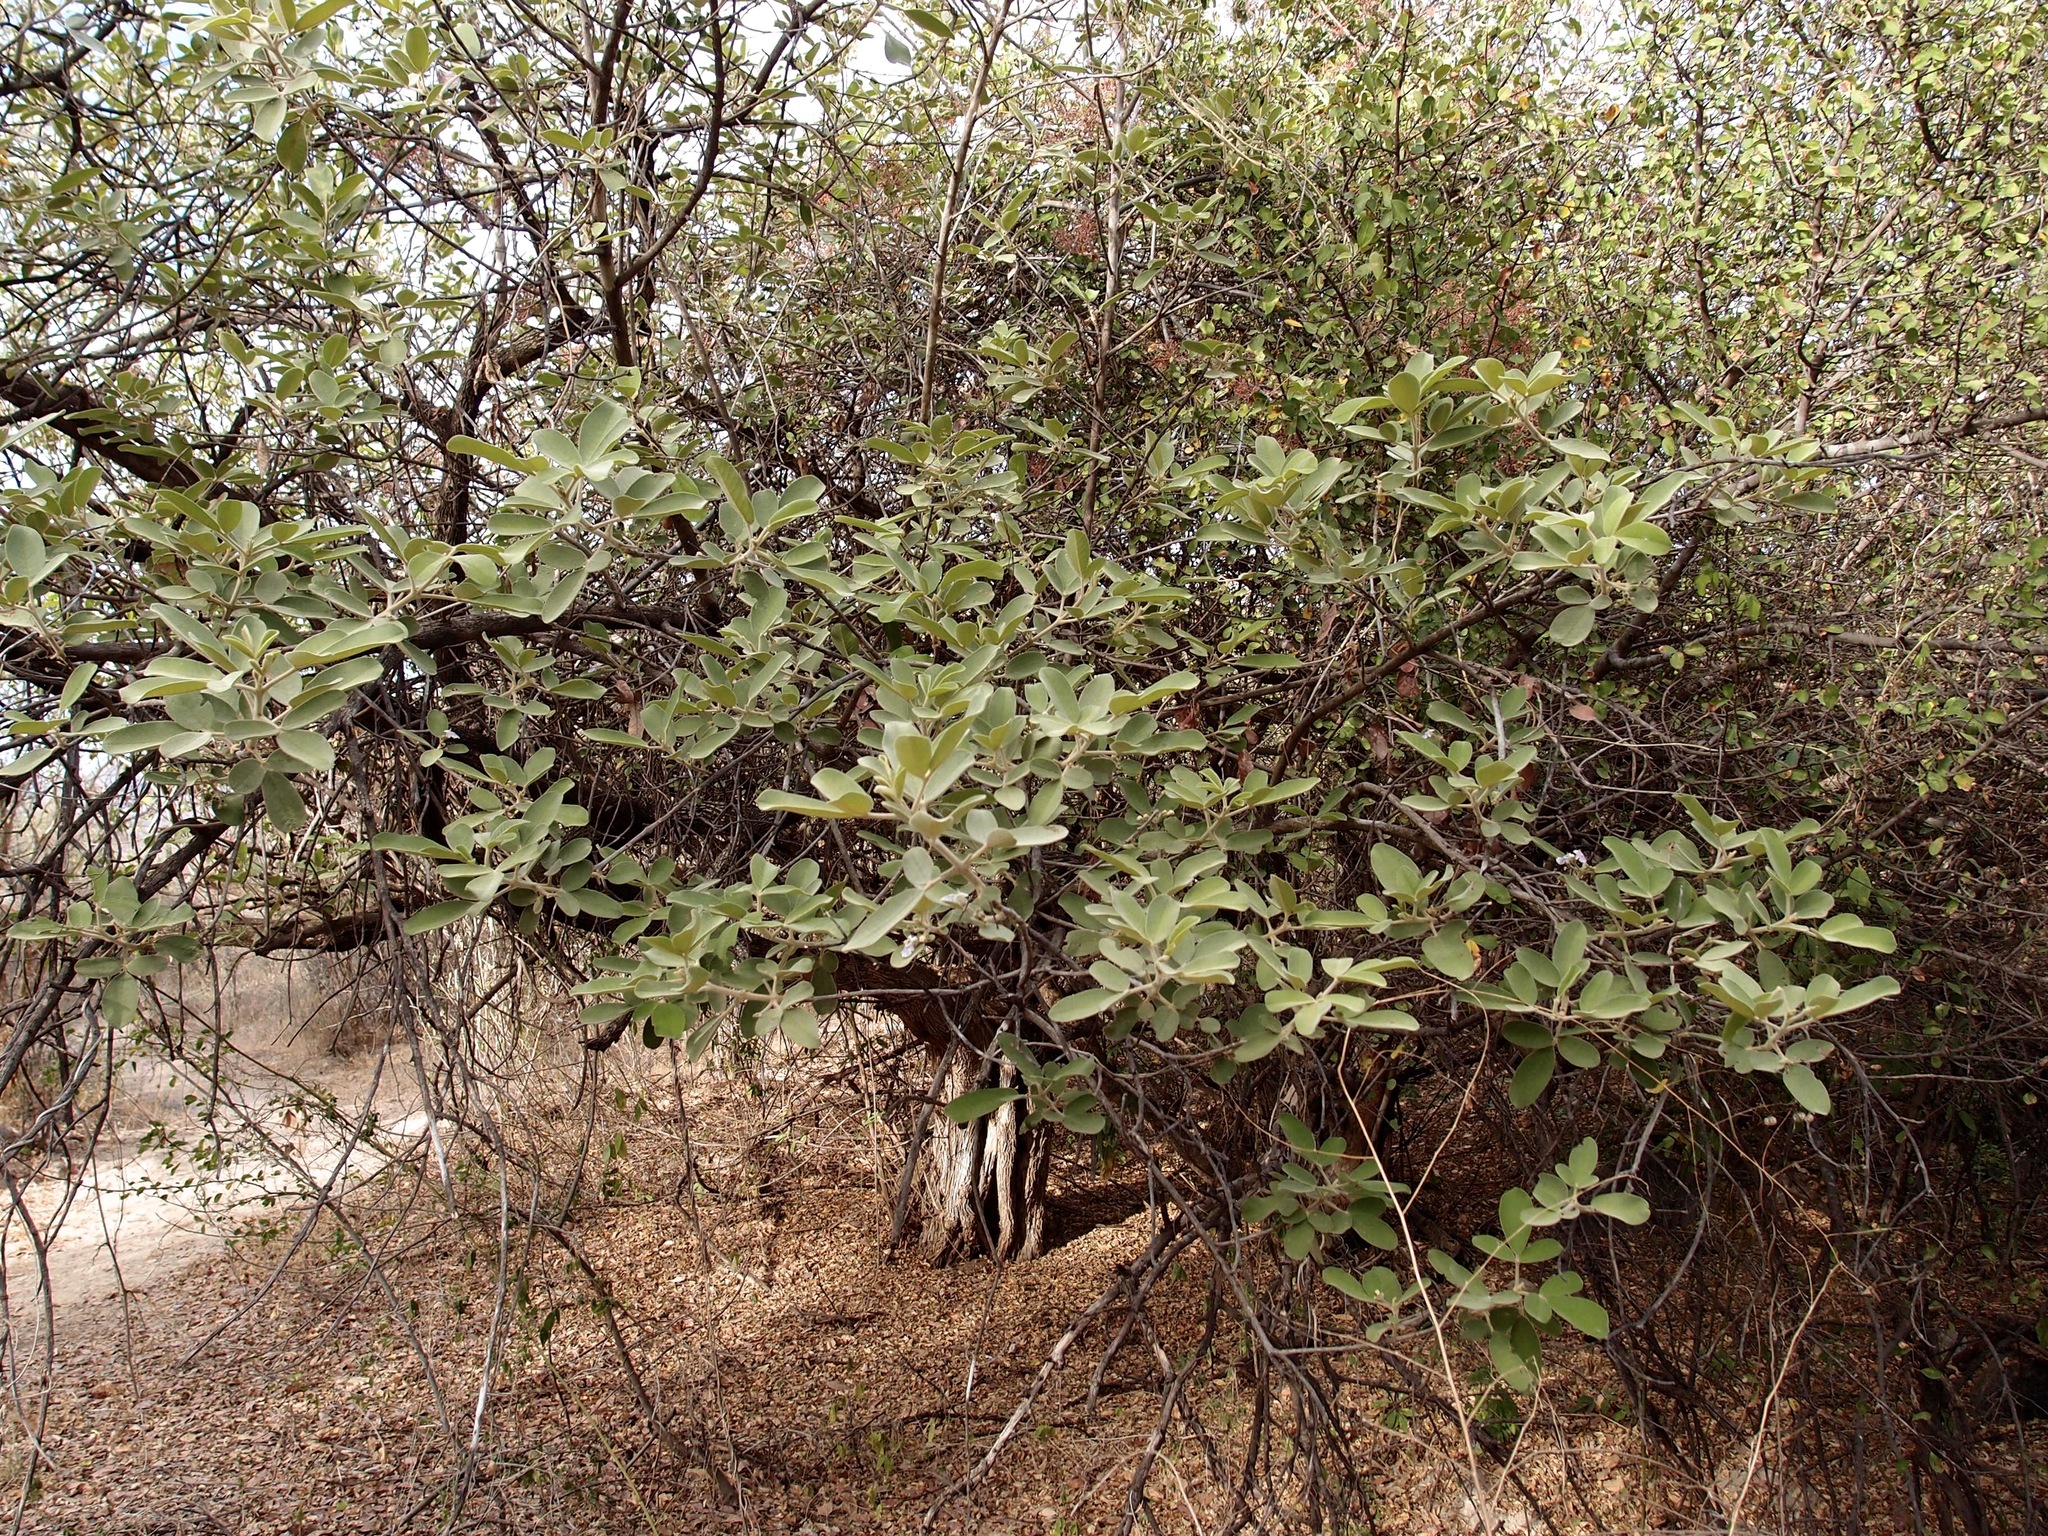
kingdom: Plantae
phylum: Tracheophyta
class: Magnoliopsida
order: Lamiales
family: Lamiaceae
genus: Vitex
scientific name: Vitex mollis
